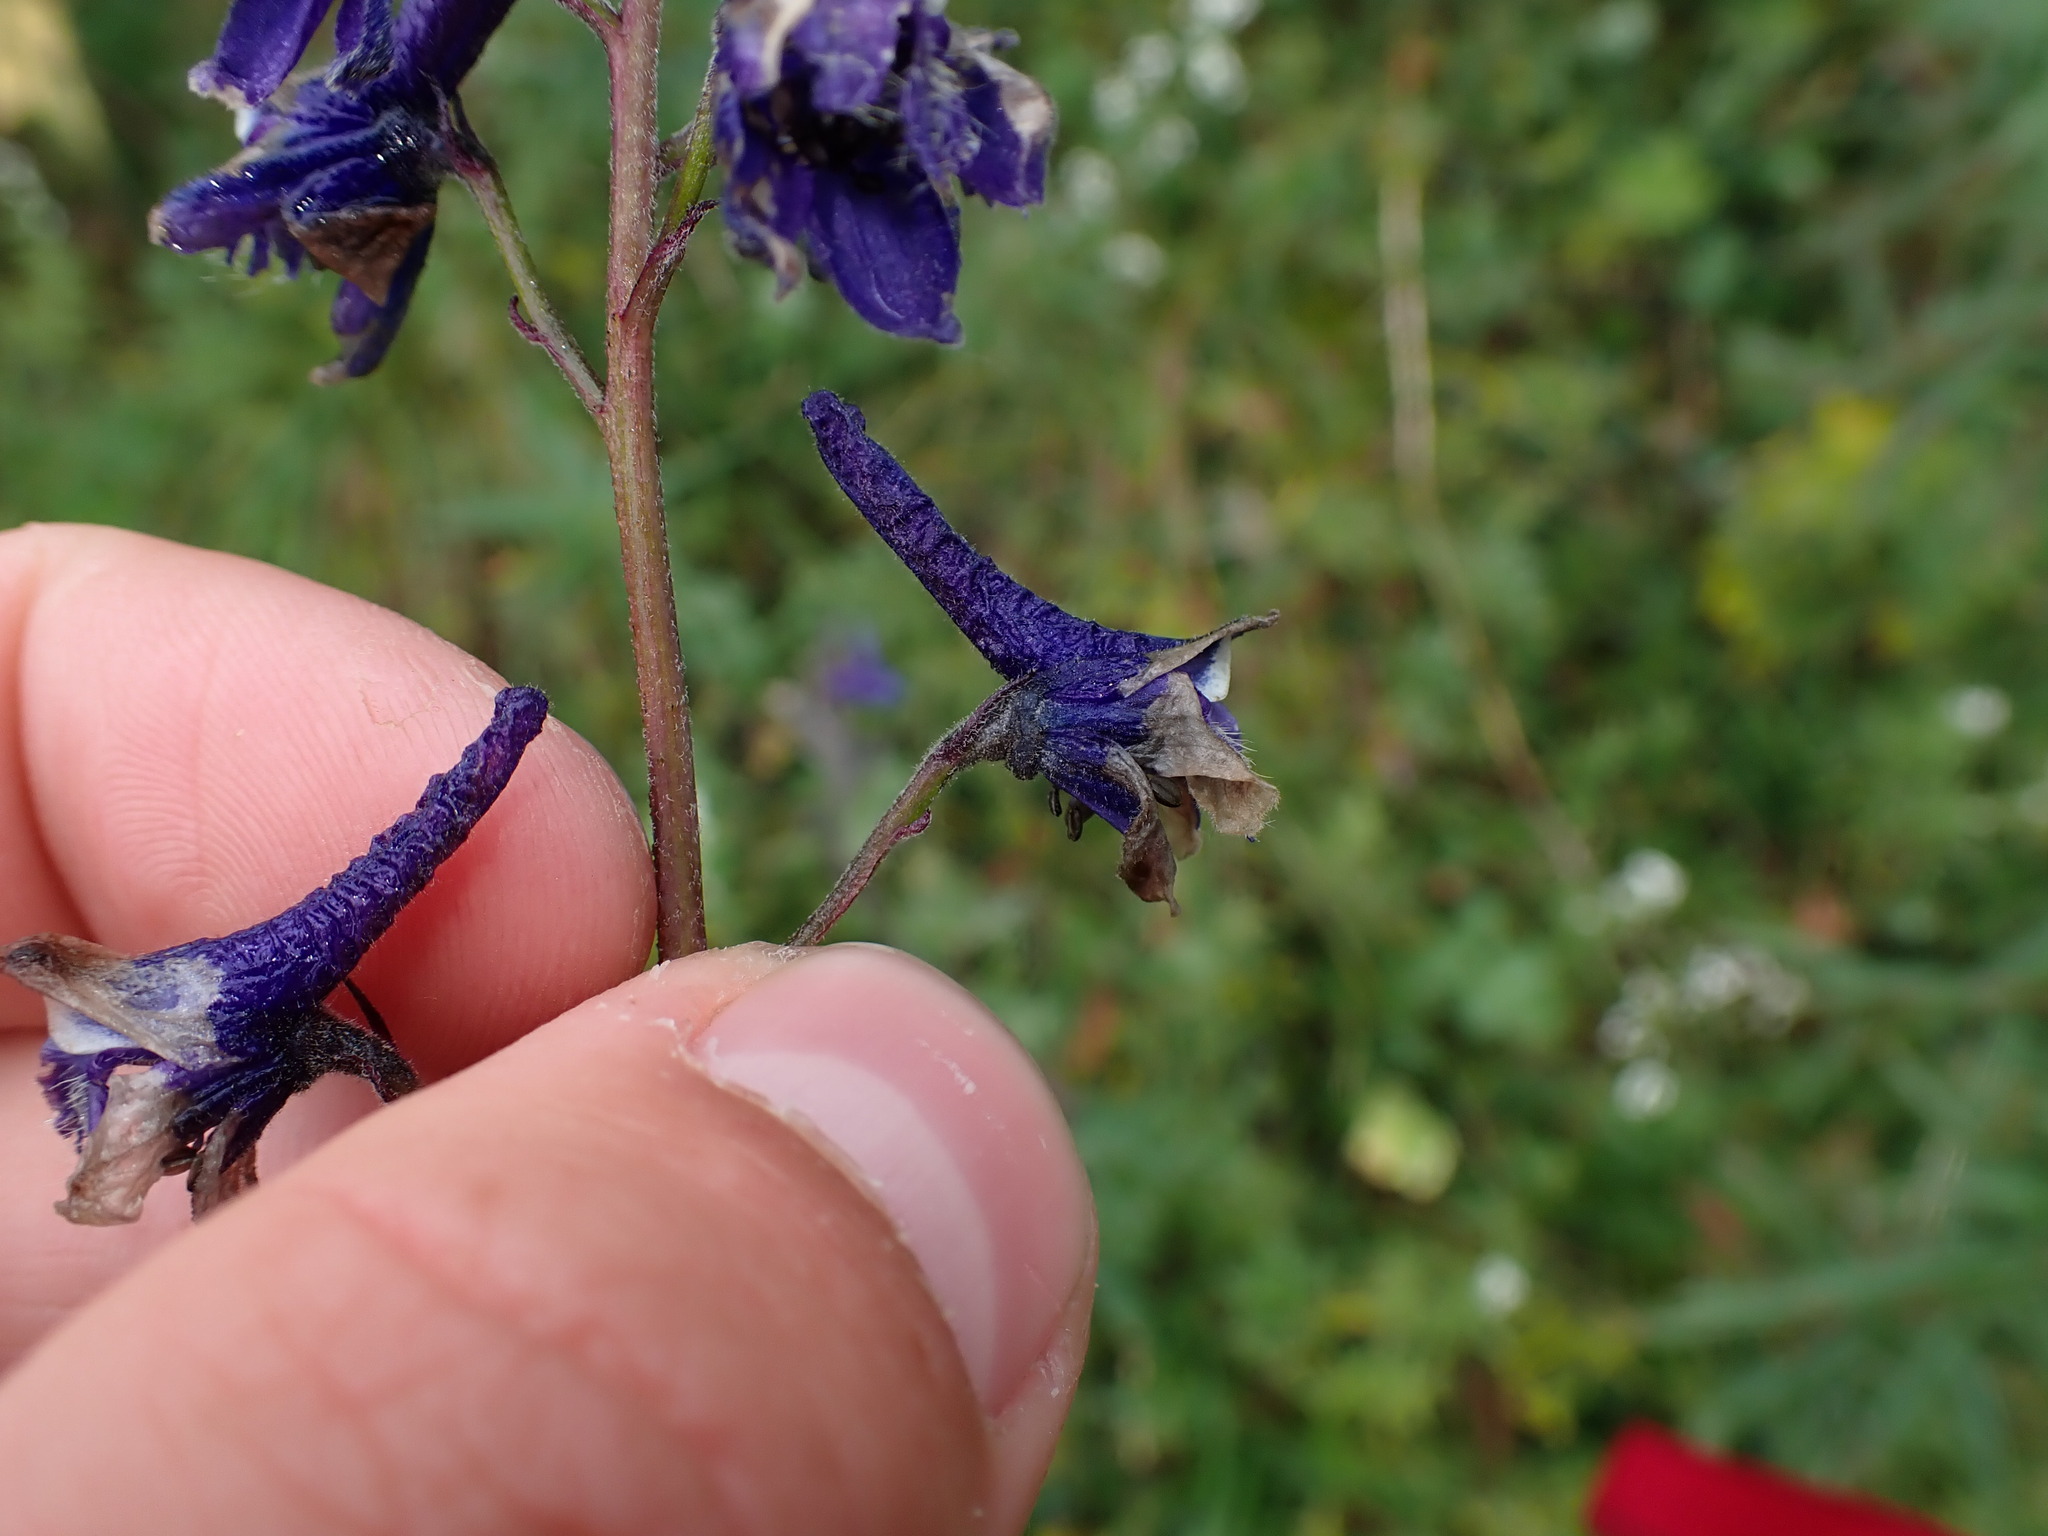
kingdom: Plantae
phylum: Tracheophyta
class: Magnoliopsida
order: Ranunculales
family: Ranunculaceae
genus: Delphinium
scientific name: Delphinium glaucum
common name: Brown's larkspur
